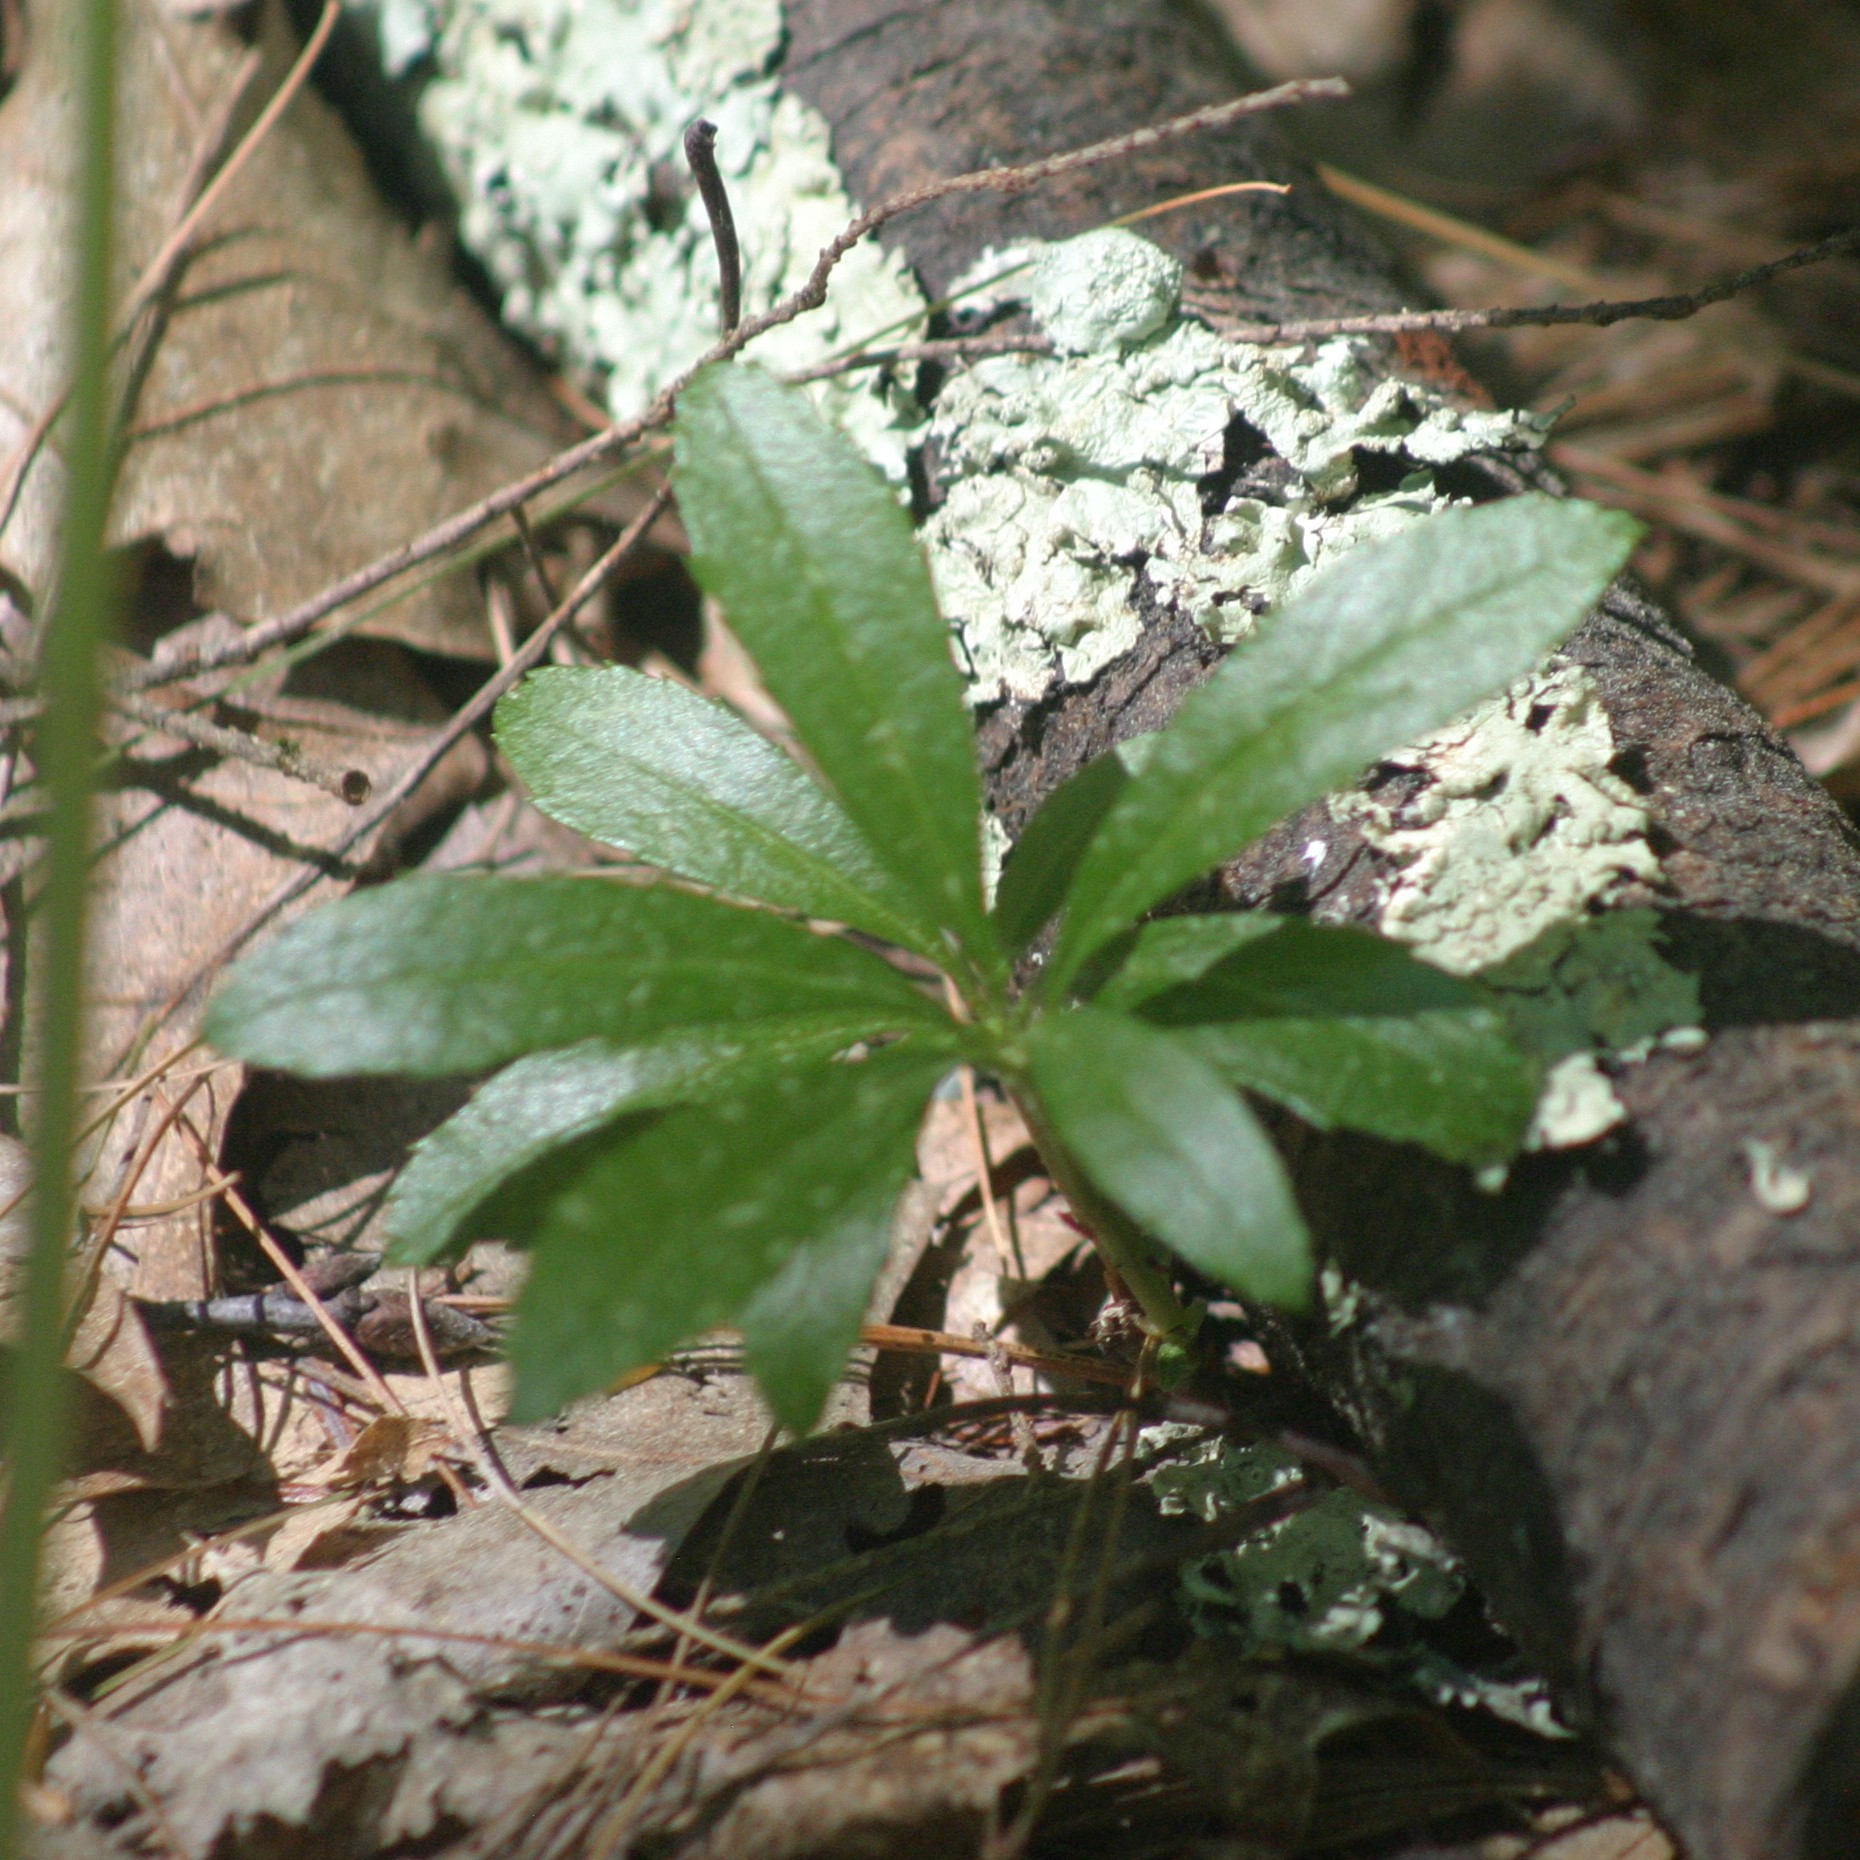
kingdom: Plantae
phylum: Tracheophyta
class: Magnoliopsida
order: Ericales
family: Ericaceae
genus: Chimaphila
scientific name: Chimaphila umbellata
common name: Pipsissewa
